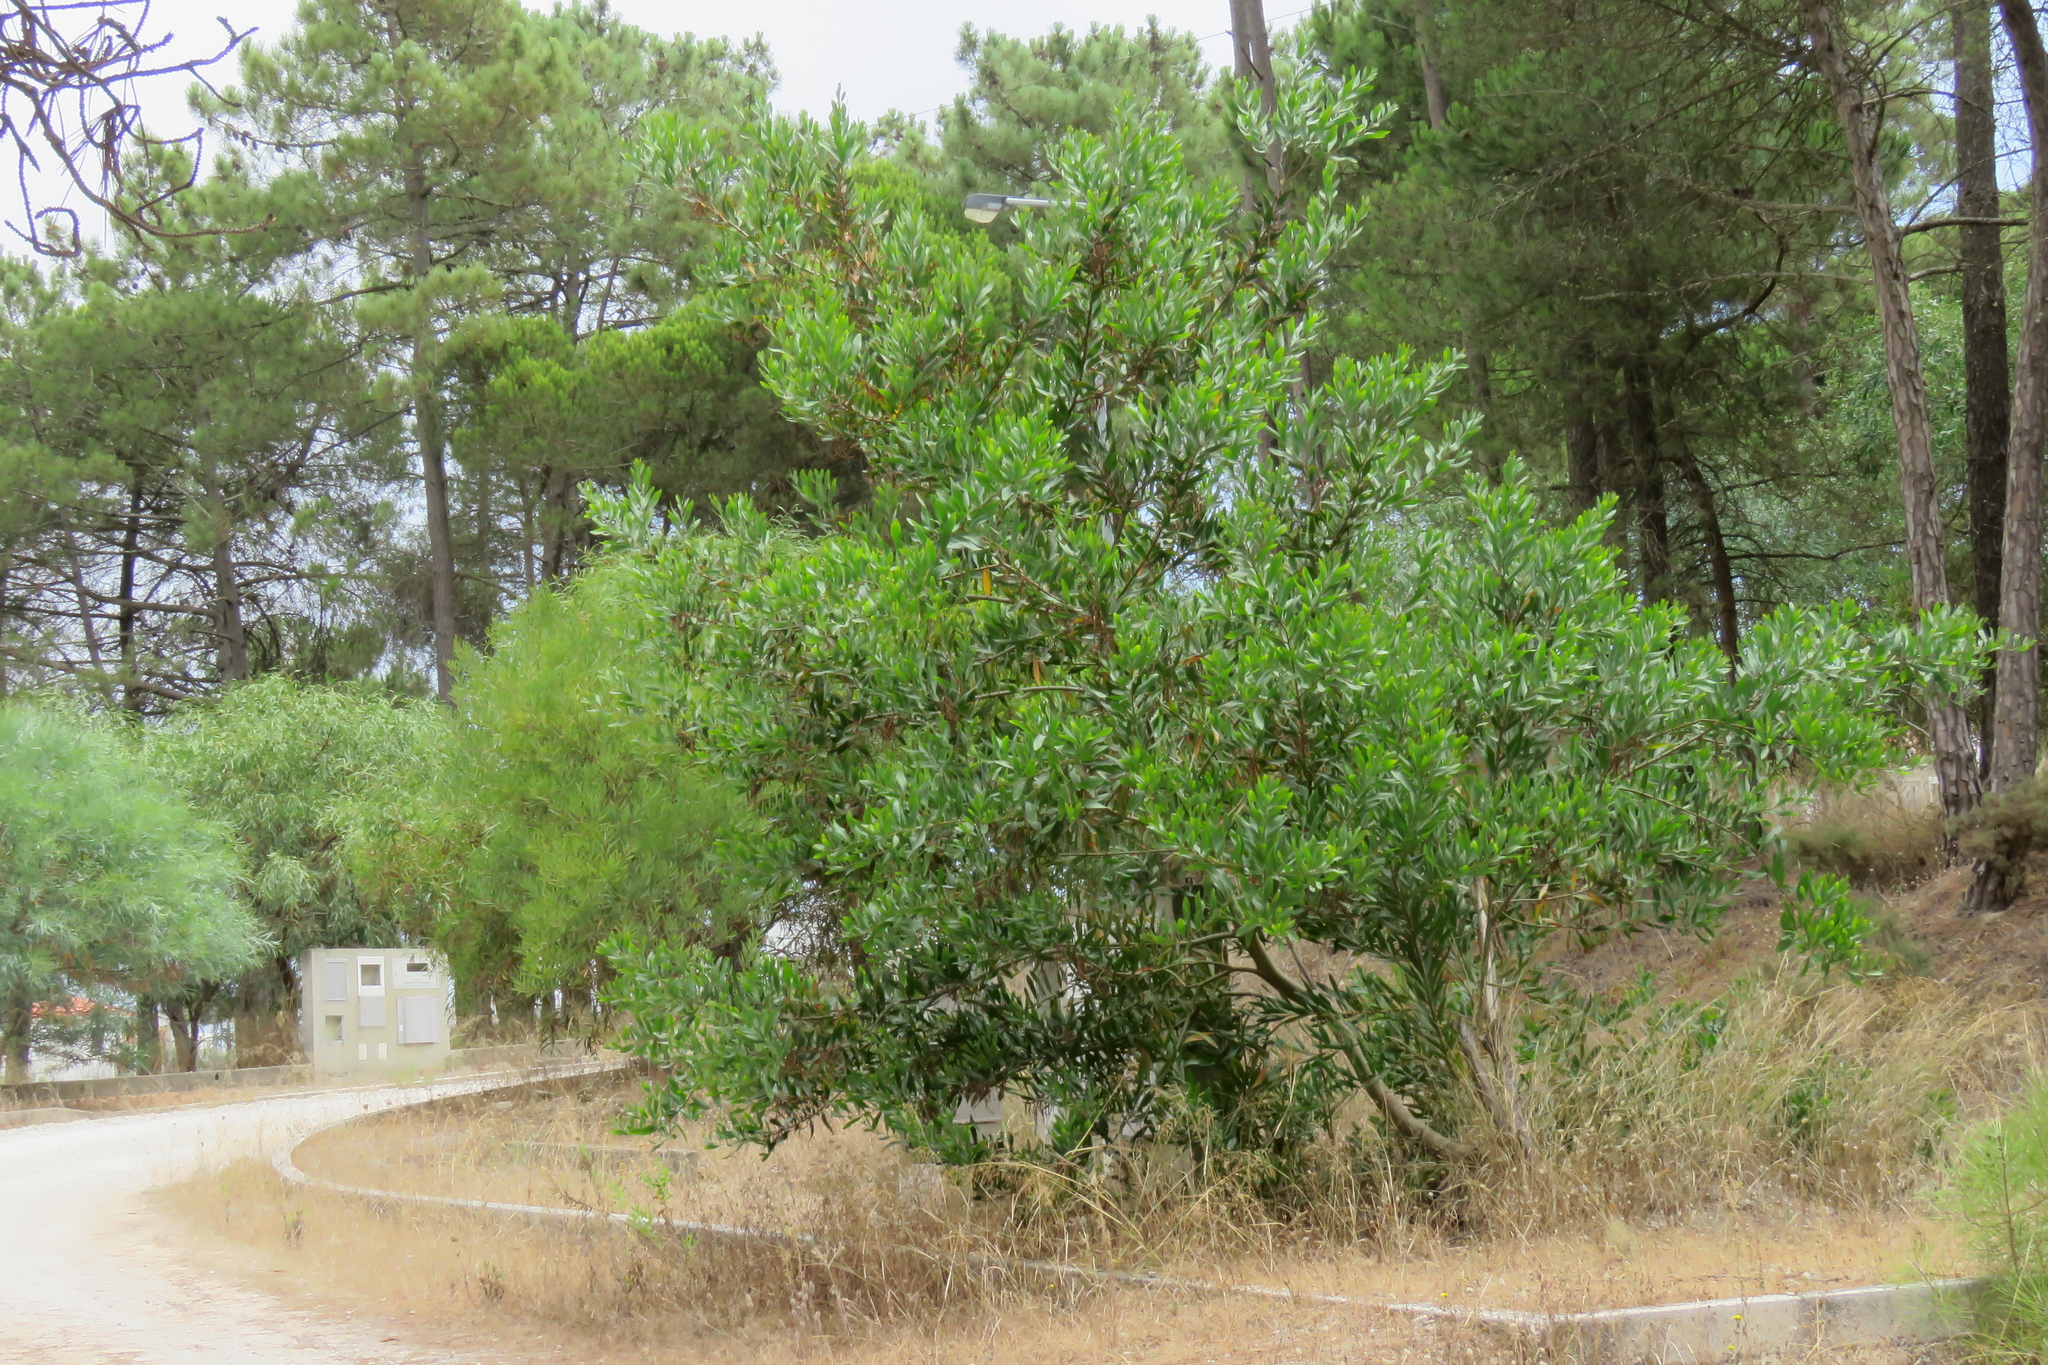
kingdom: Plantae
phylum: Tracheophyta
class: Magnoliopsida
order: Fabales
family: Fabaceae
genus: Acacia
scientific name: Acacia longifolia
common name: Sydney golden wattle
